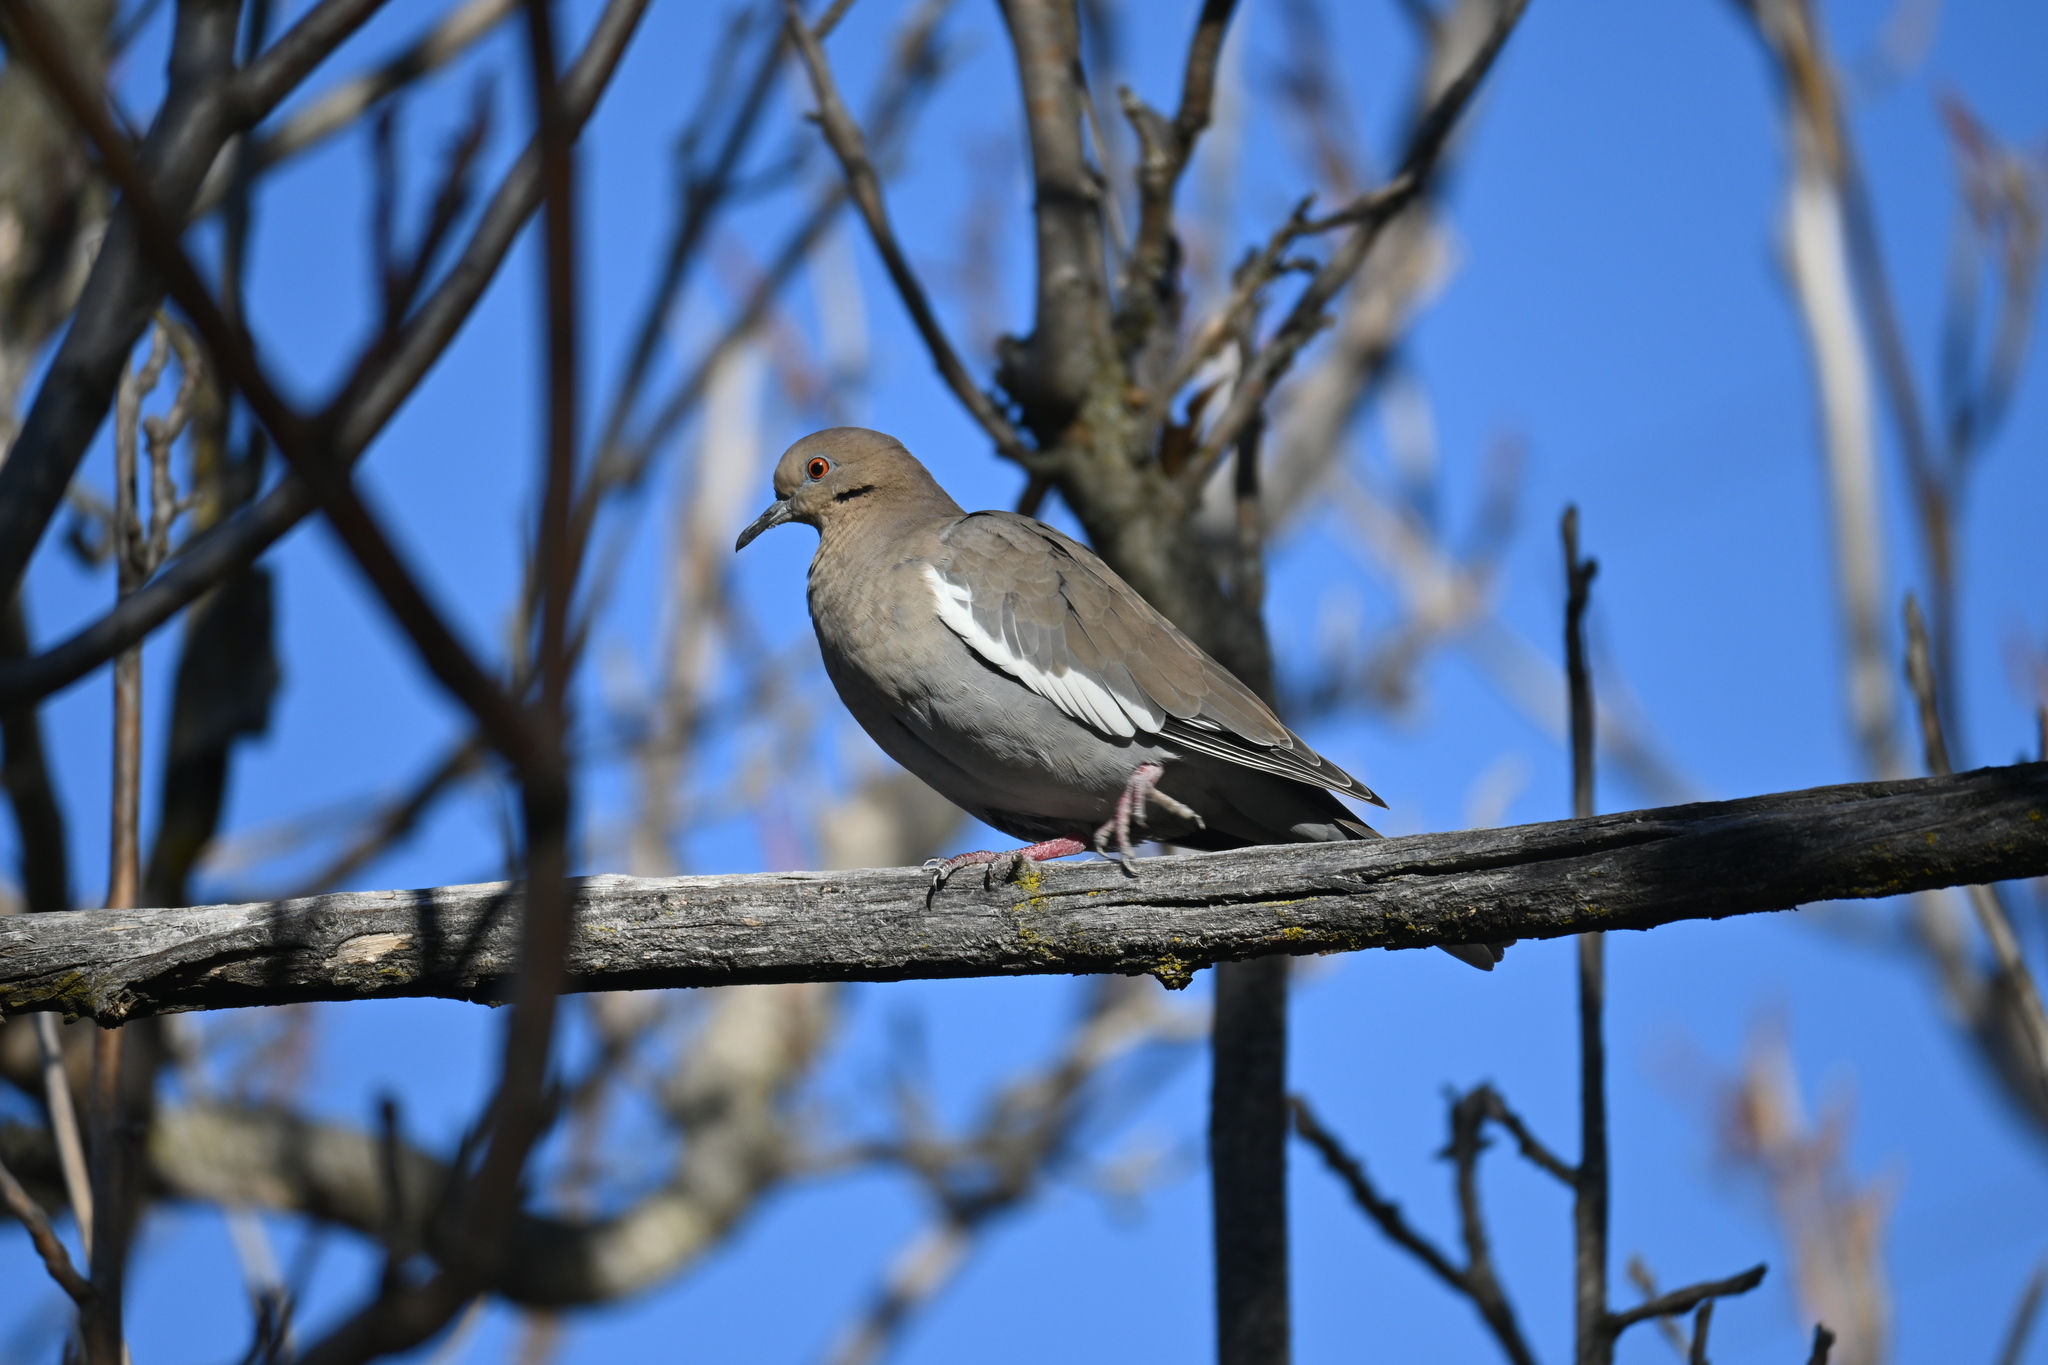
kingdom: Animalia
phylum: Chordata
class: Aves
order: Columbiformes
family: Columbidae
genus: Zenaida
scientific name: Zenaida asiatica
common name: White-winged dove
